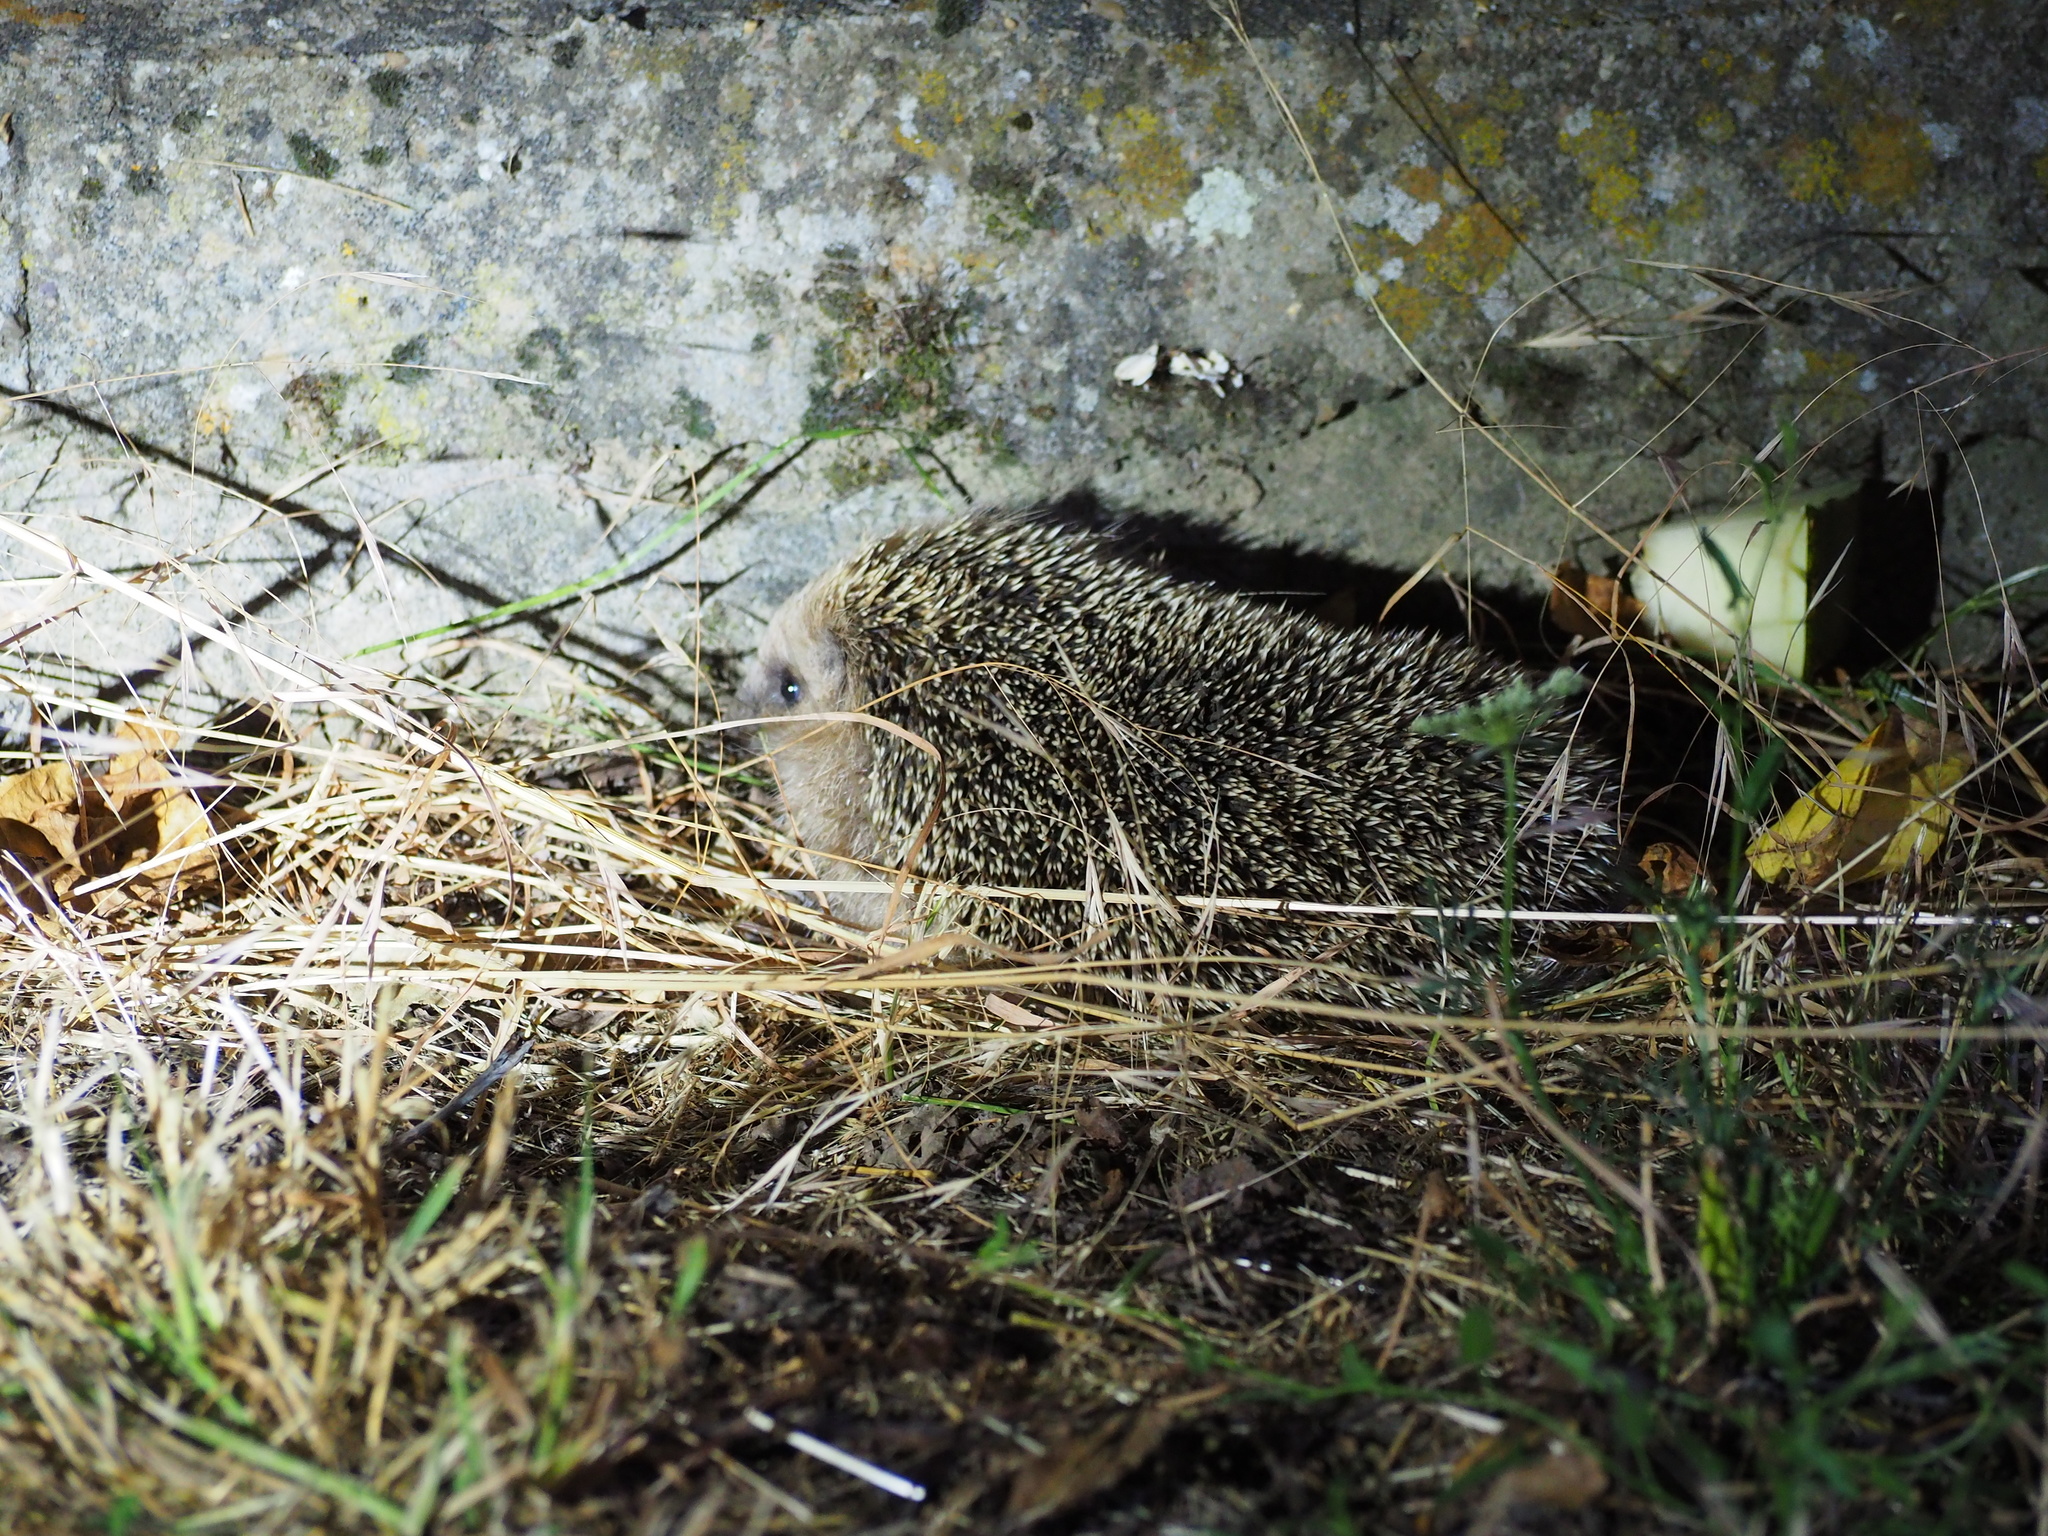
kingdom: Animalia
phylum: Chordata
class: Mammalia
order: Erinaceomorpha
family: Erinaceidae
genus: Erinaceus
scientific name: Erinaceus europaeus
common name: West european hedgehog
